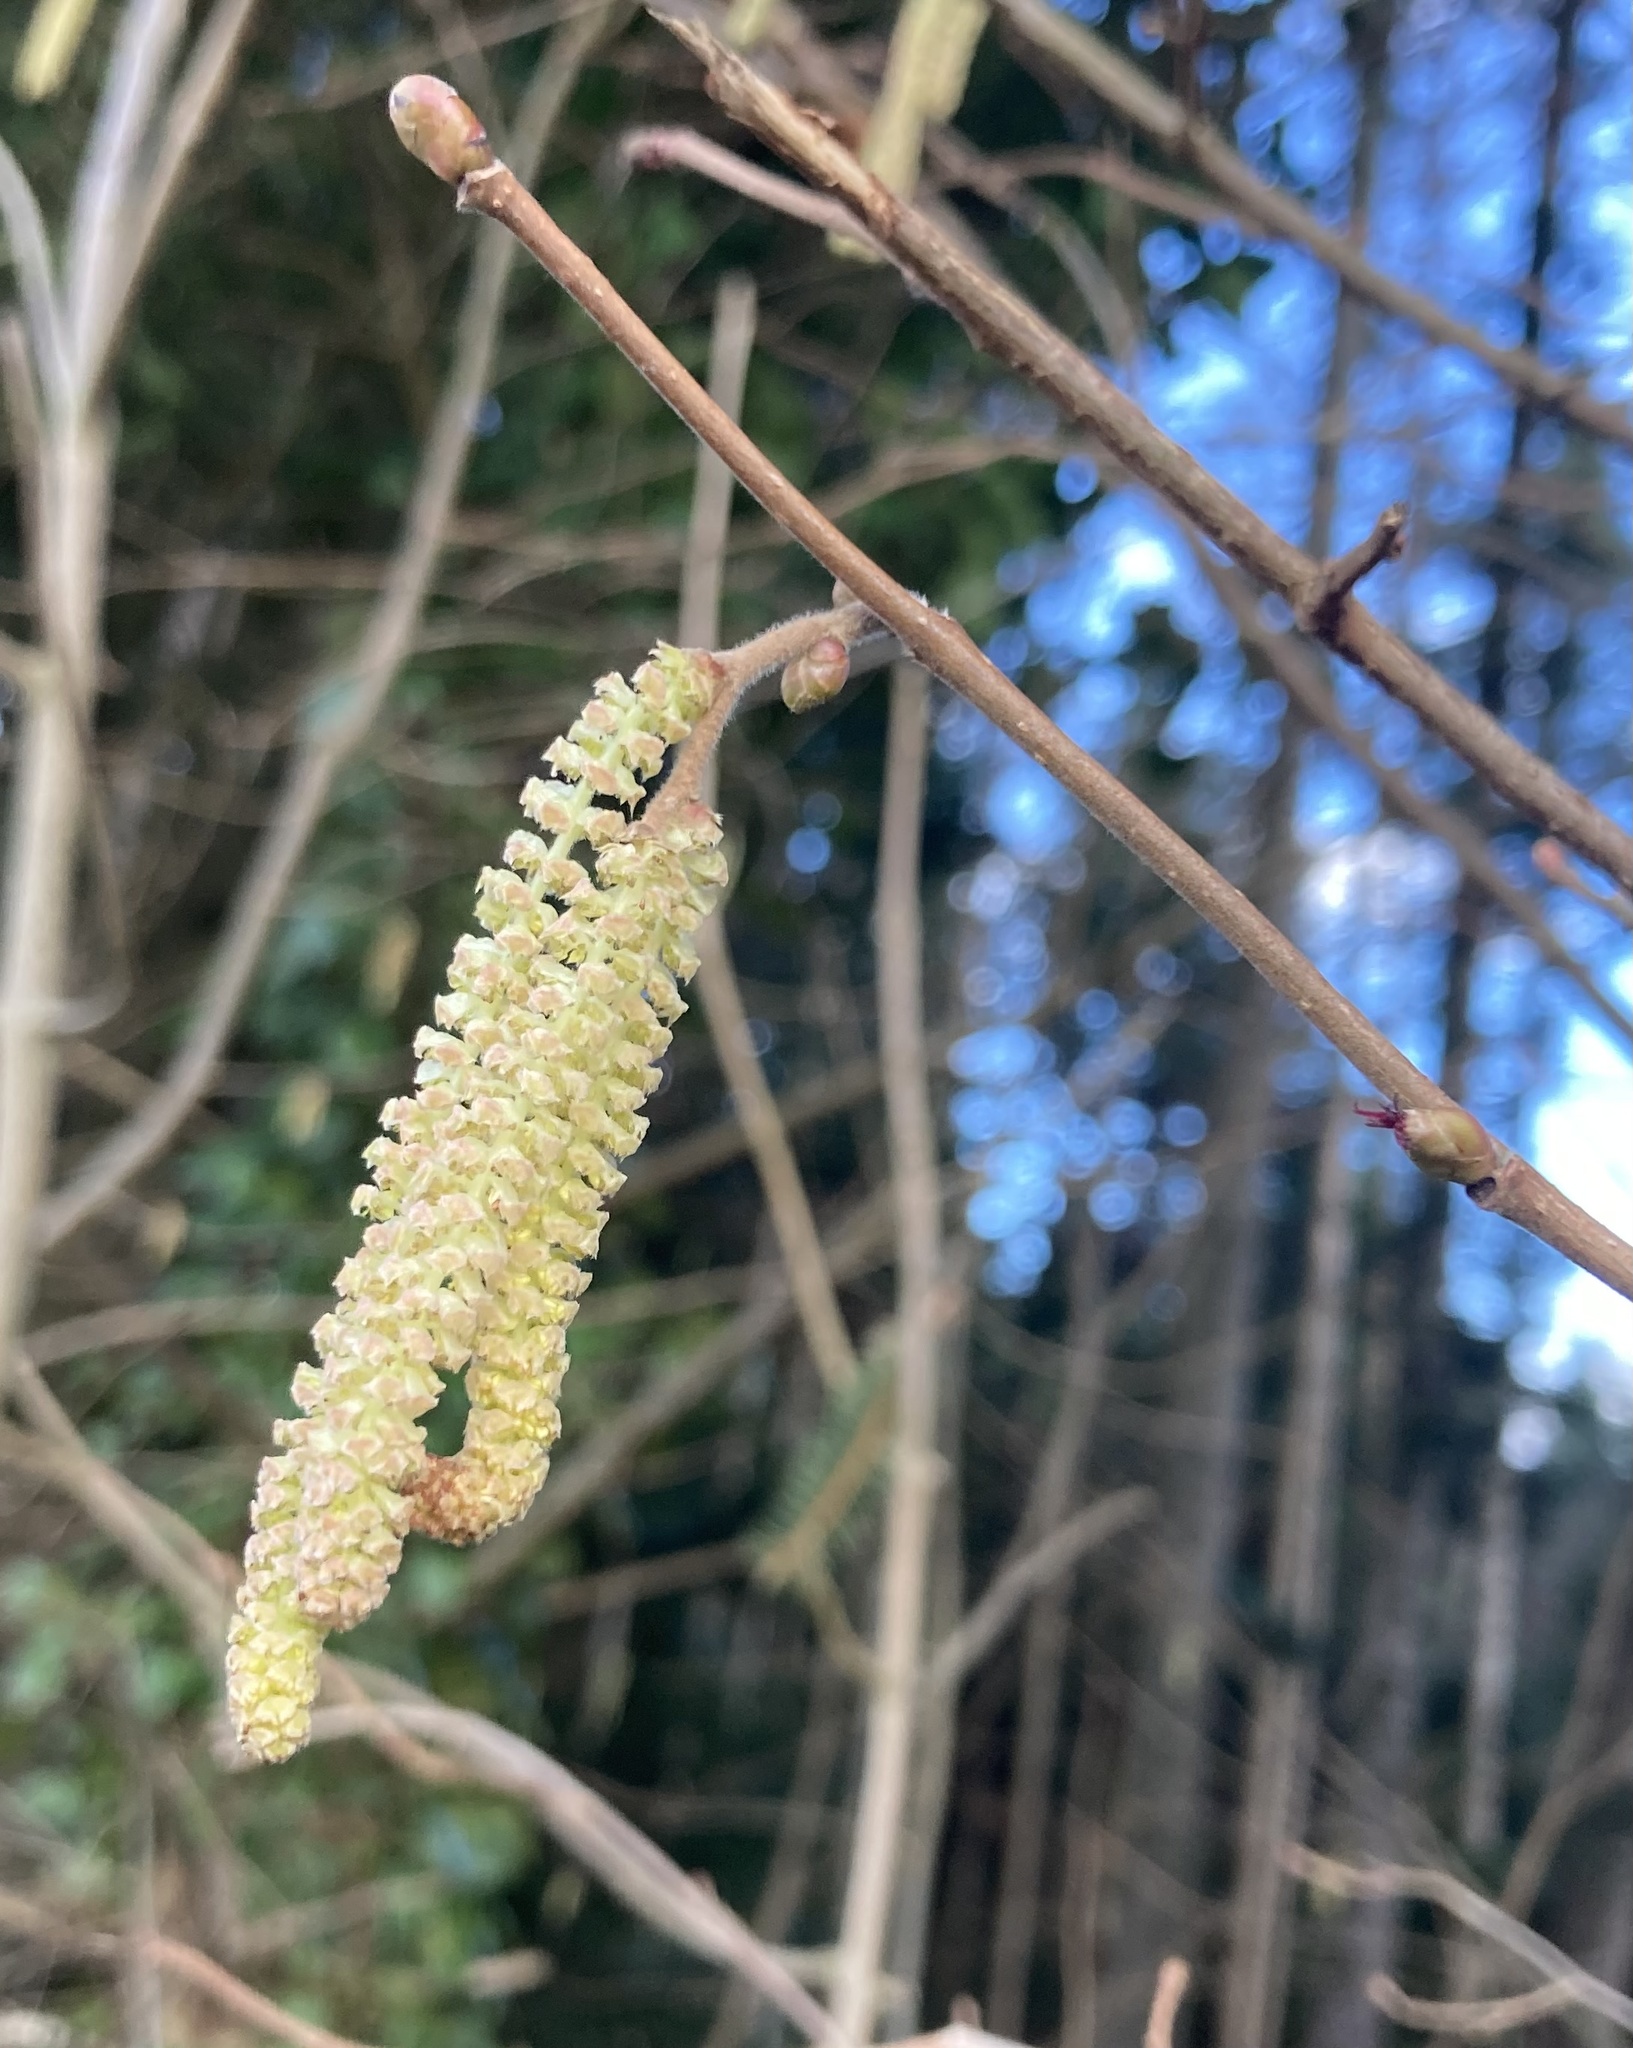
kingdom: Plantae
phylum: Tracheophyta
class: Magnoliopsida
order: Fagales
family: Betulaceae
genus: Corylus
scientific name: Corylus avellana
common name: European hazel
